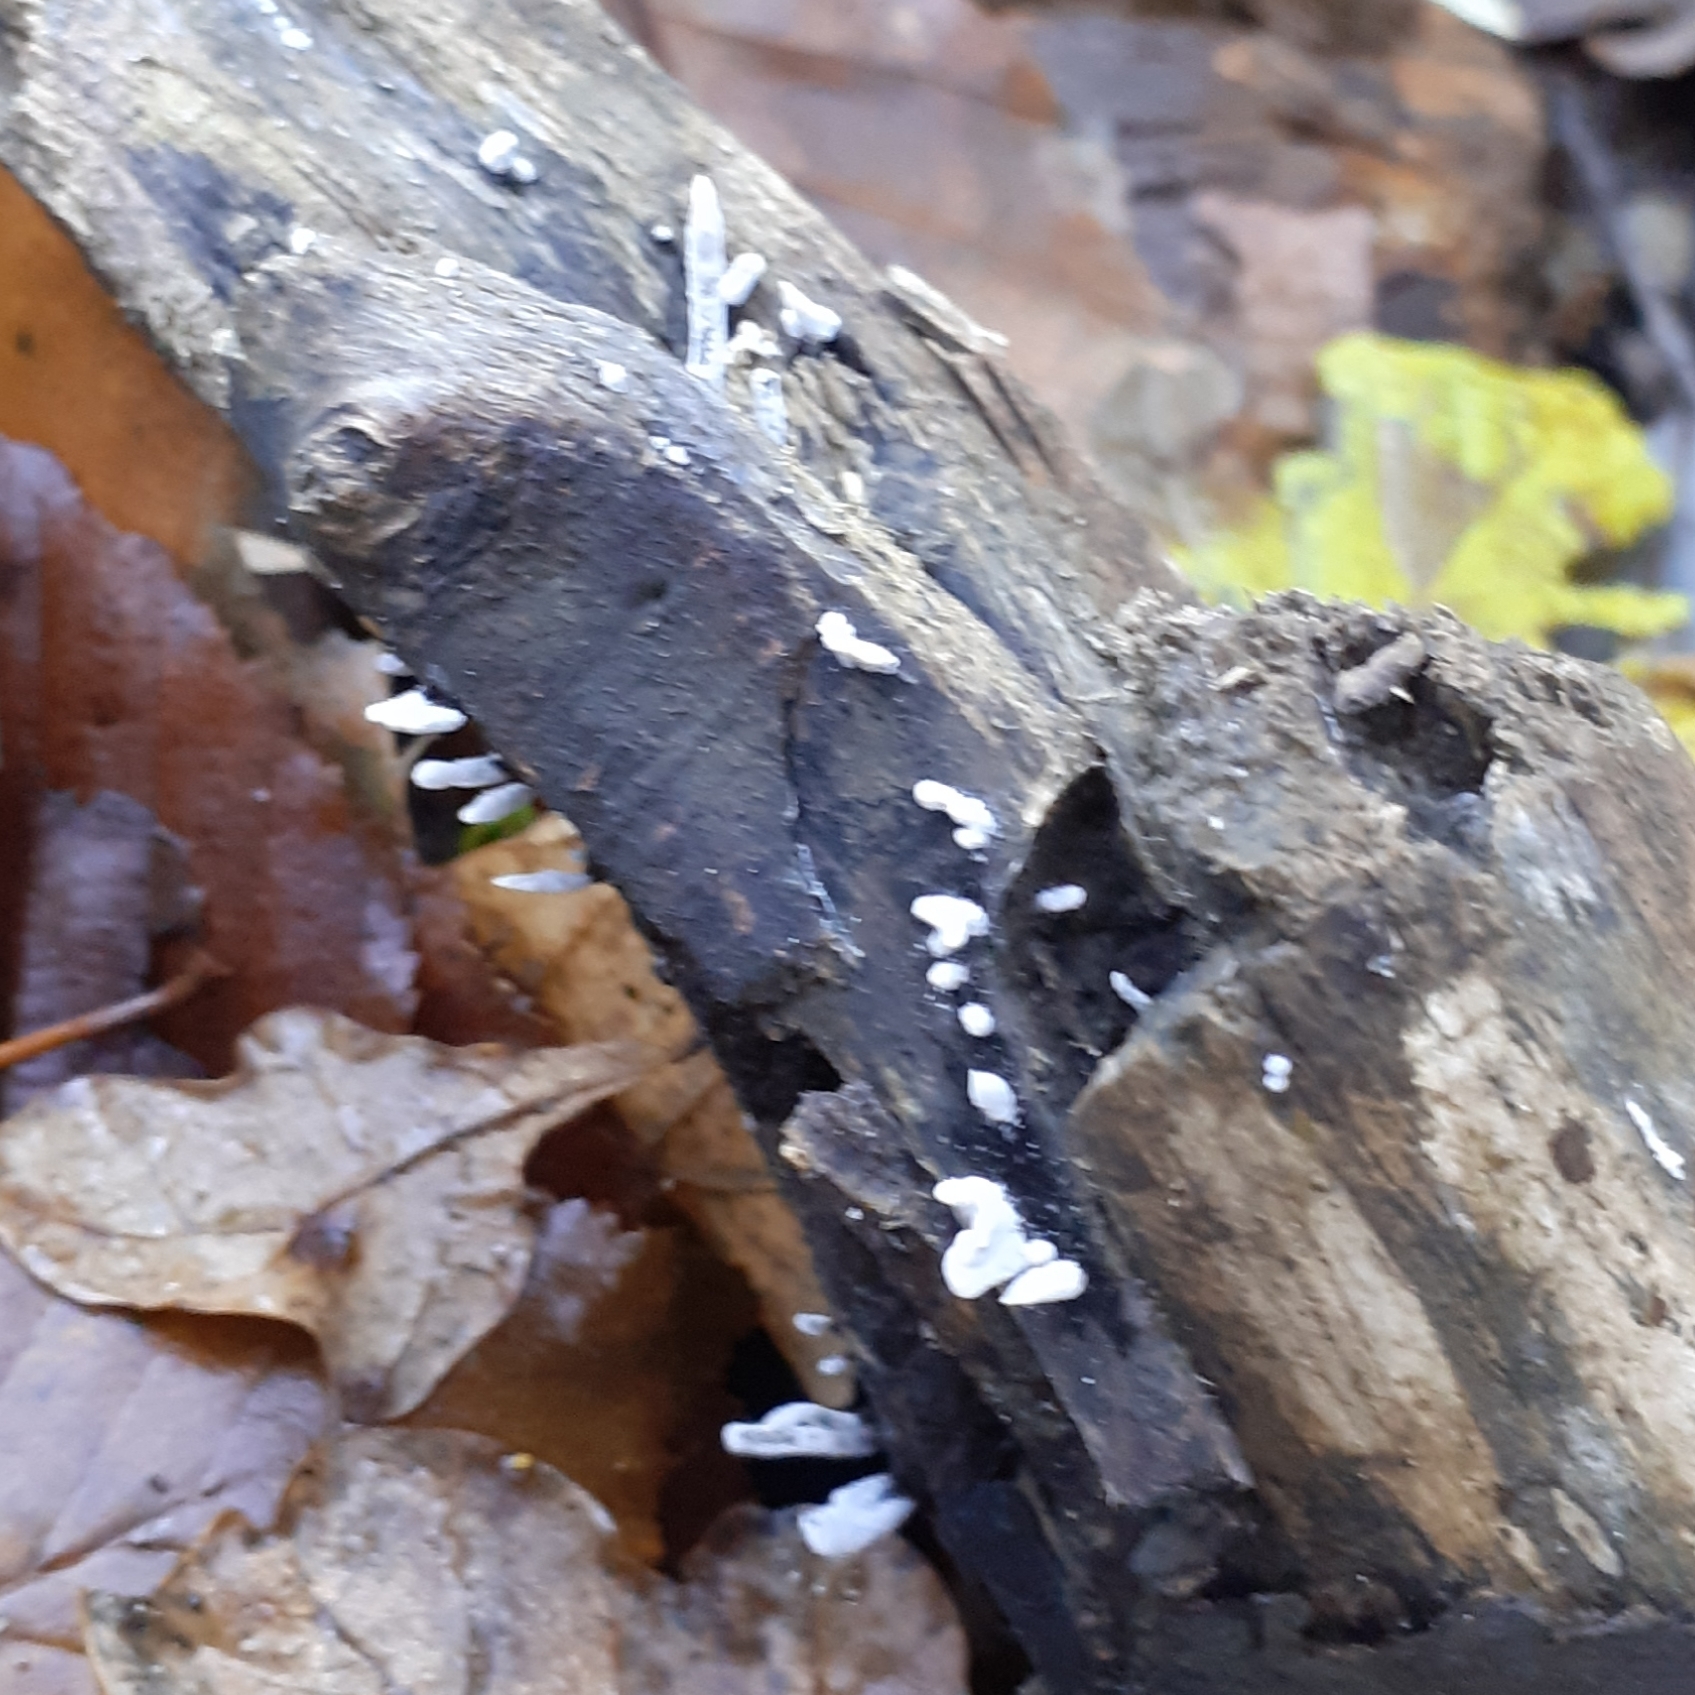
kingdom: Fungi
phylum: Ascomycota
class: Sordariomycetes
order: Xylariales
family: Xylariaceae
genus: Xylaria
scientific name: Xylaria hypoxylon
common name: Candle-snuff fungus
